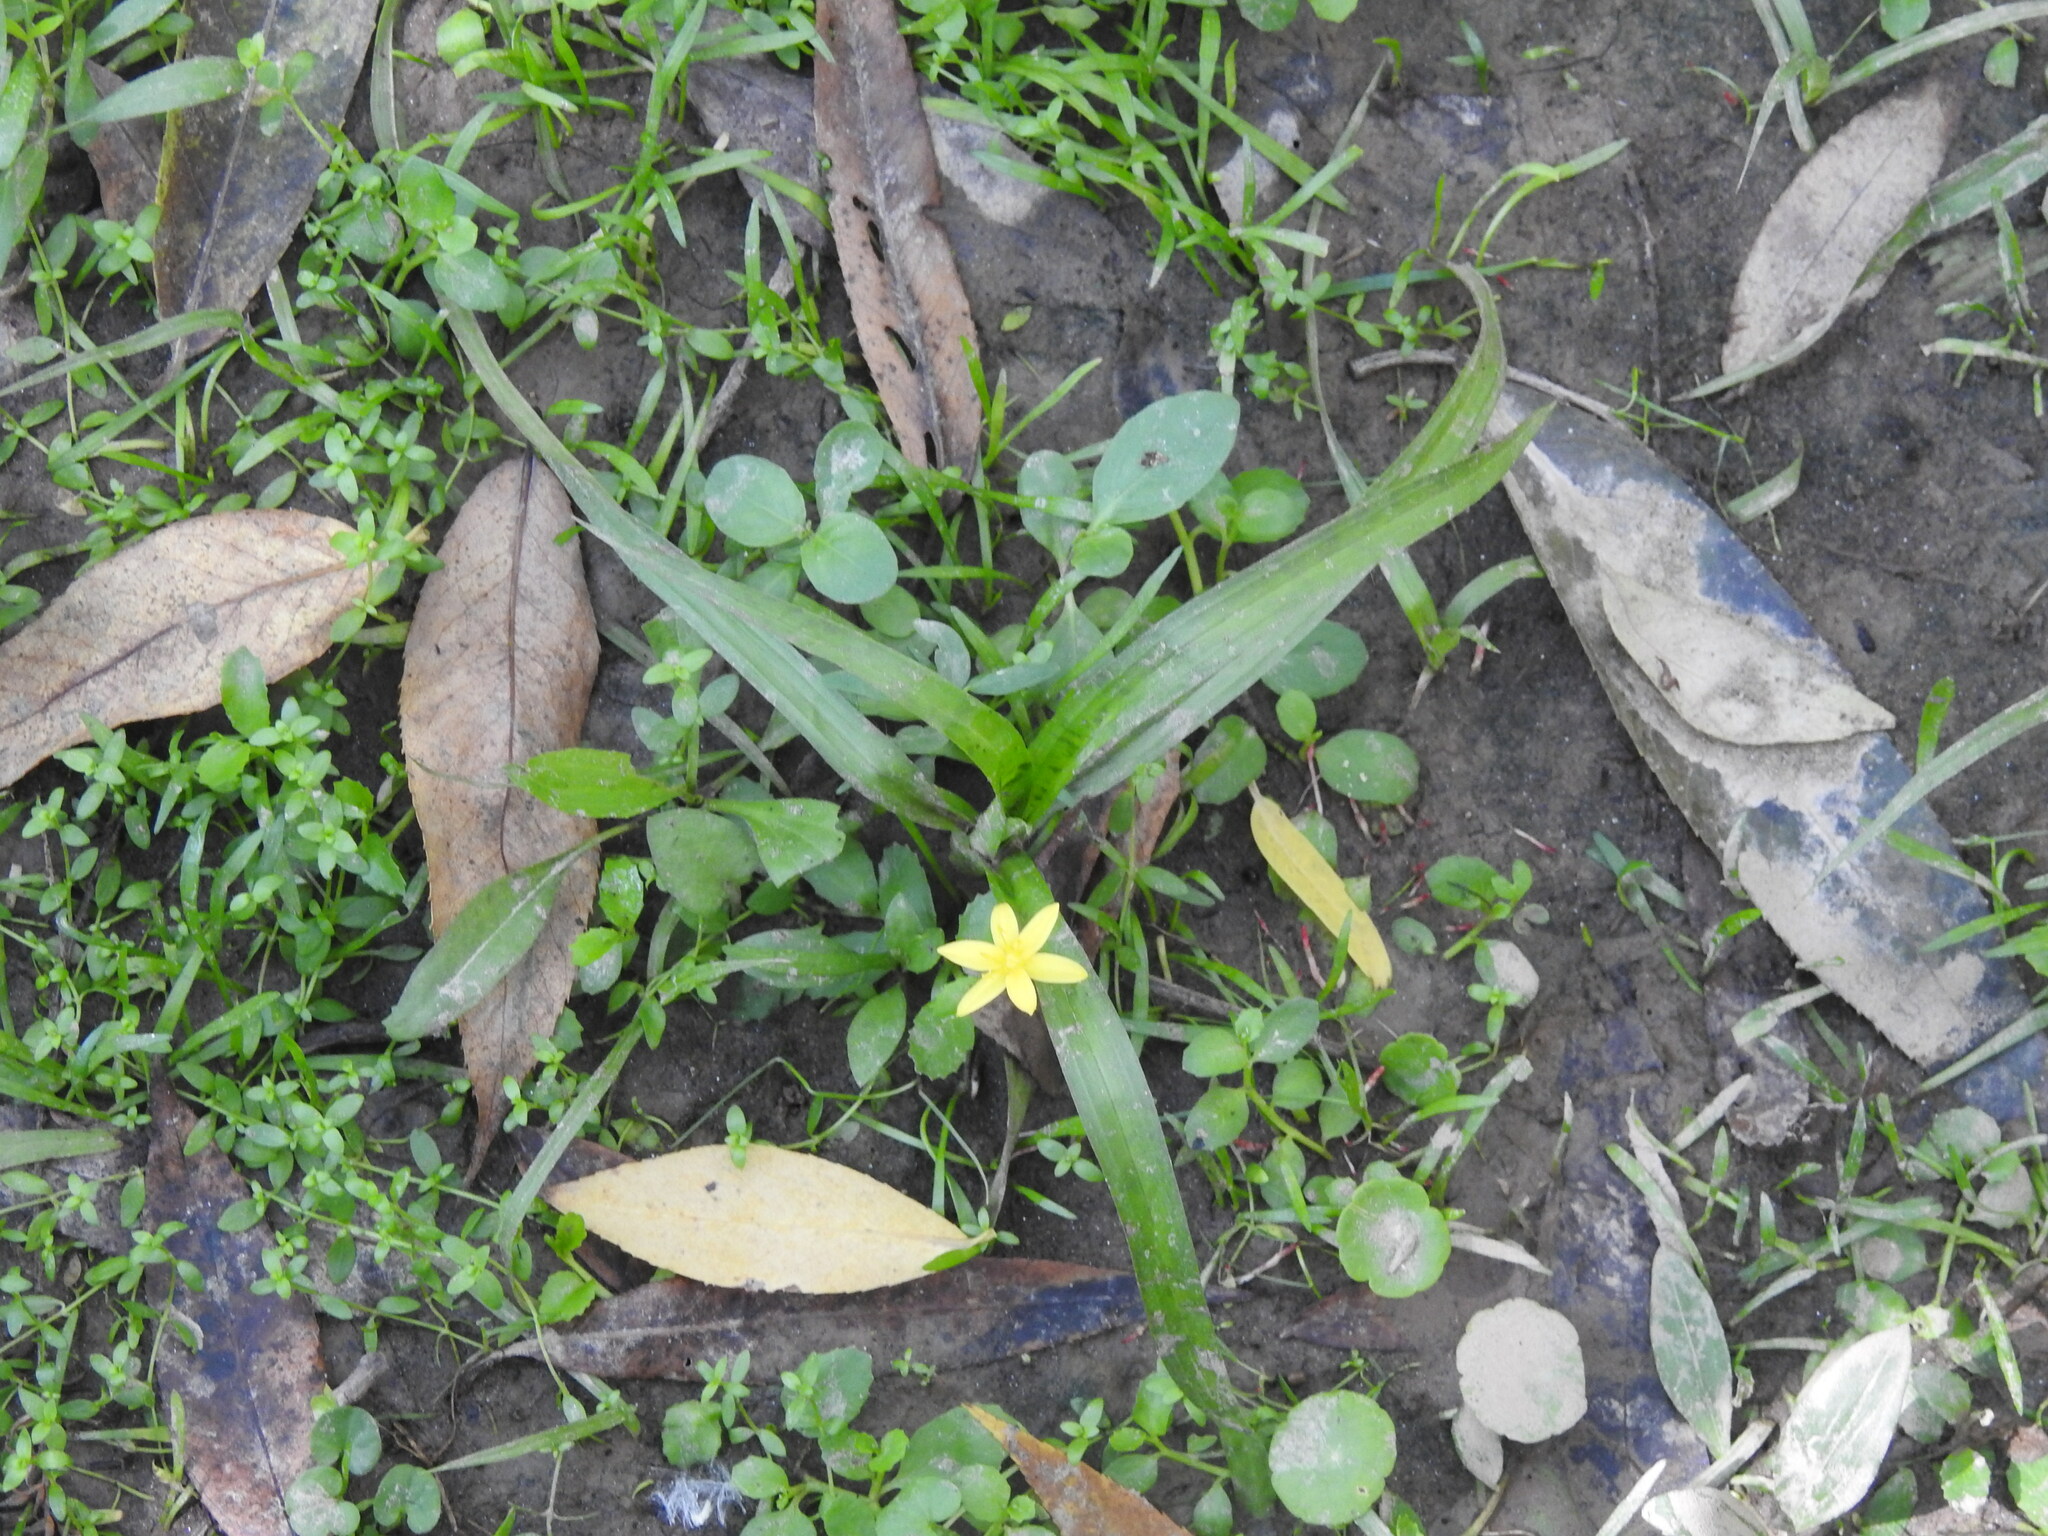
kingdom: Plantae
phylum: Tracheophyta
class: Liliopsida
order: Asparagales
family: Hypoxidaceae
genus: Hypoxis
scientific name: Hypoxis decumbens
